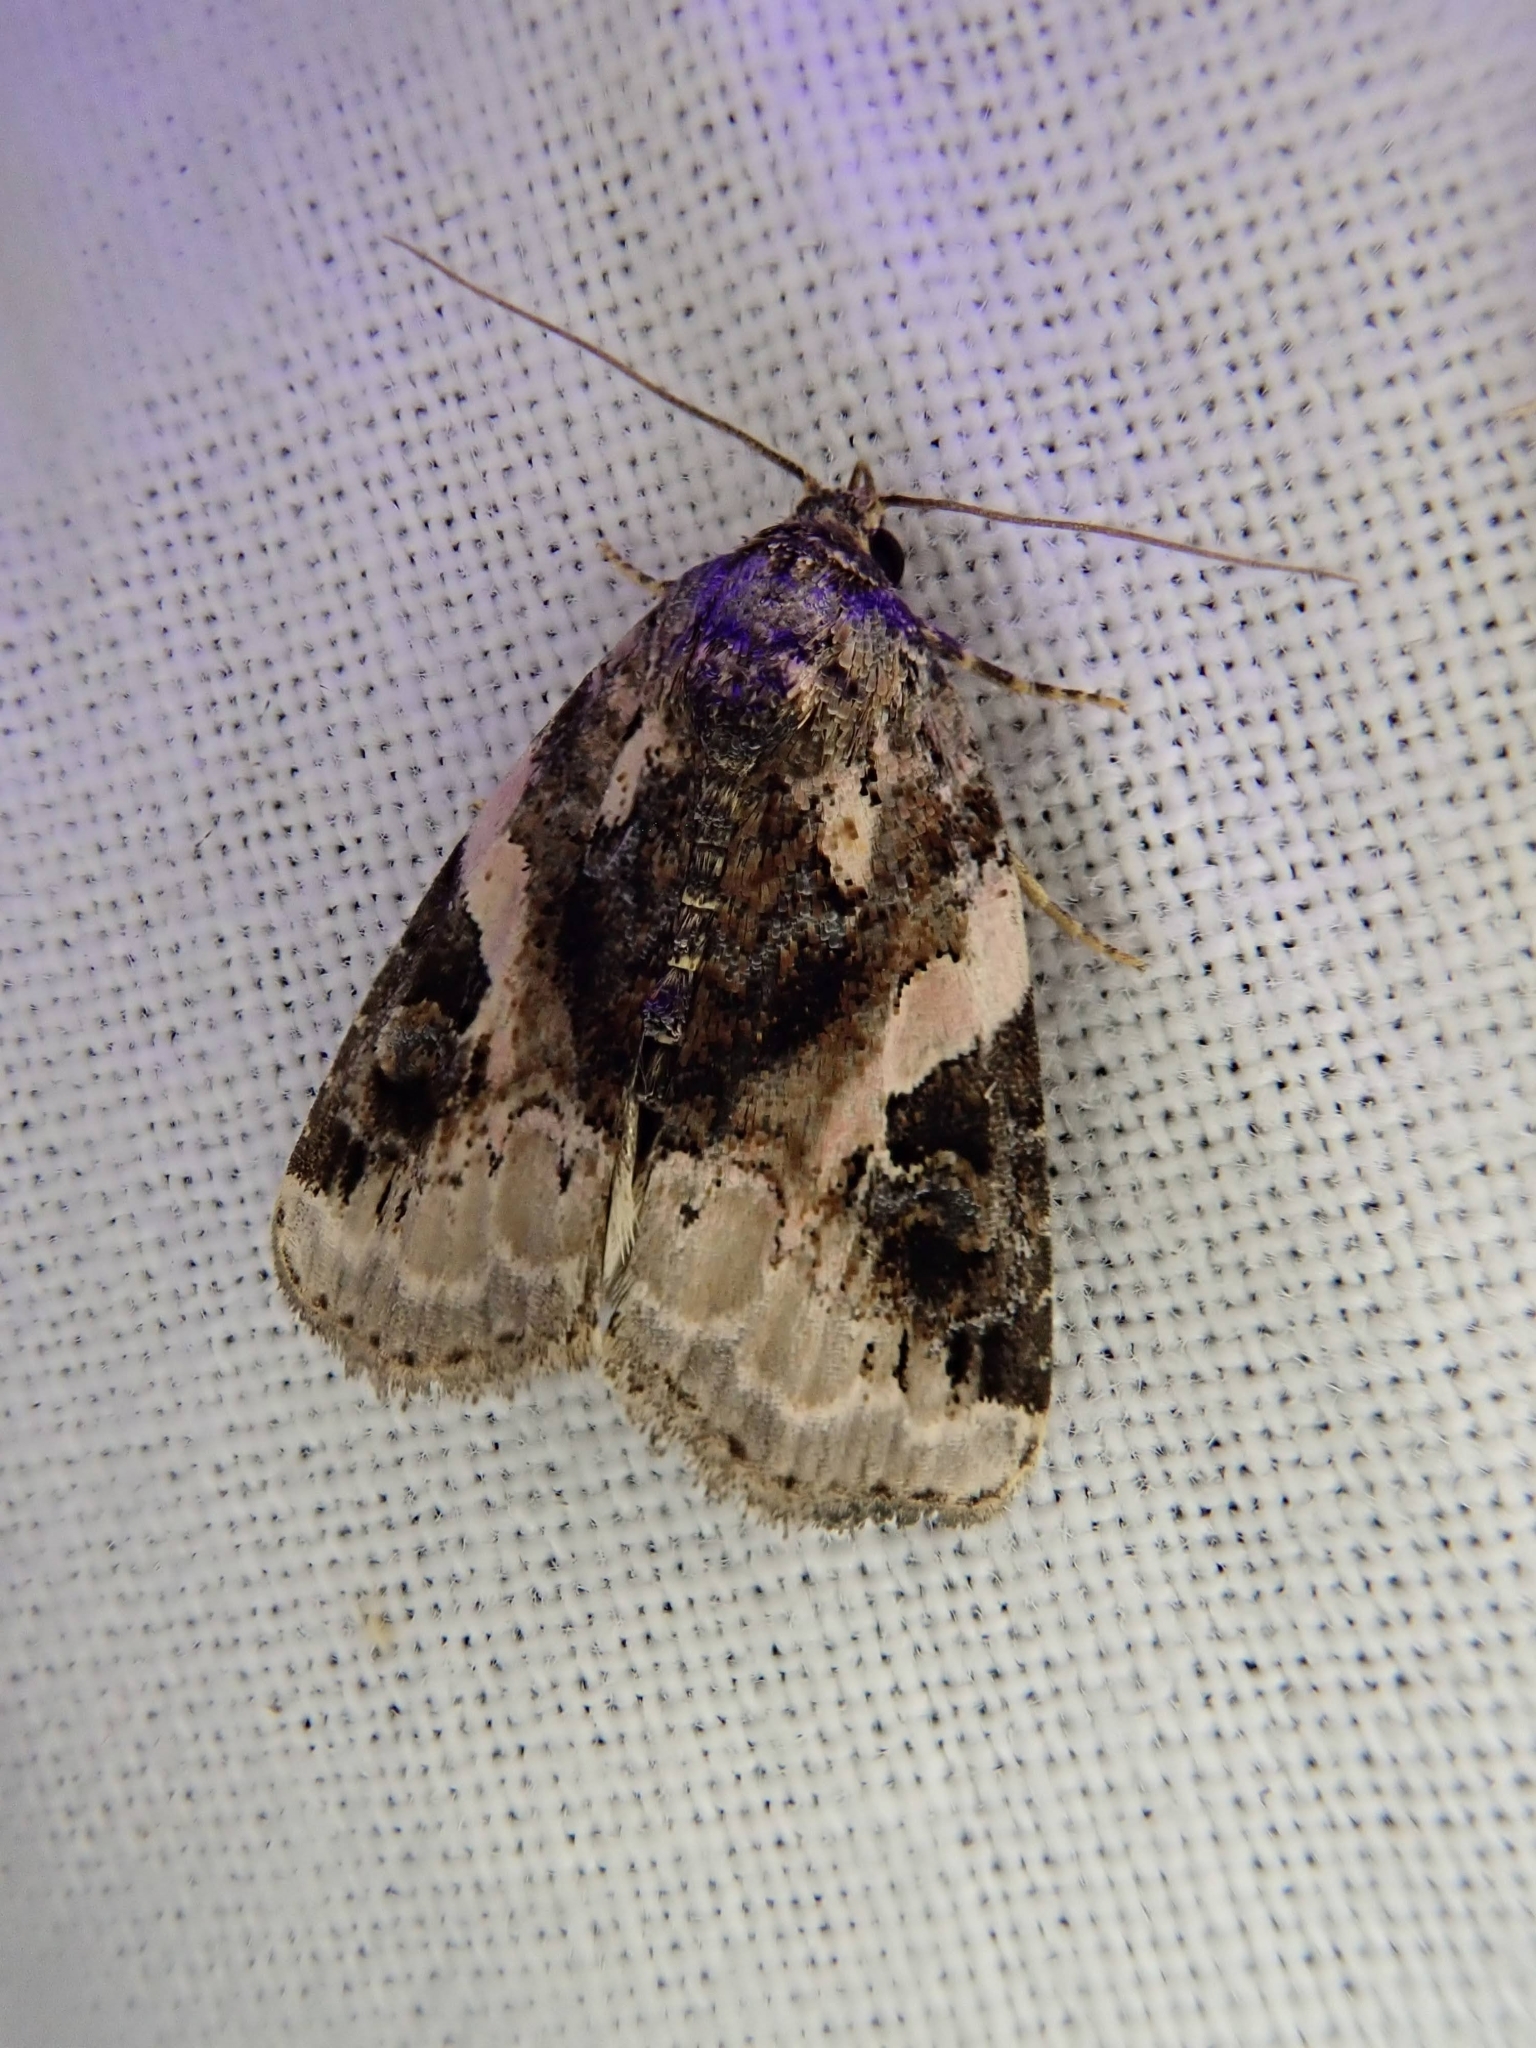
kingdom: Animalia
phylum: Arthropoda
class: Insecta
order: Lepidoptera
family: Noctuidae
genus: Pseudeustrotia
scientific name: Pseudeustrotia carneola
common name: Pink-barred lithacodia moth
